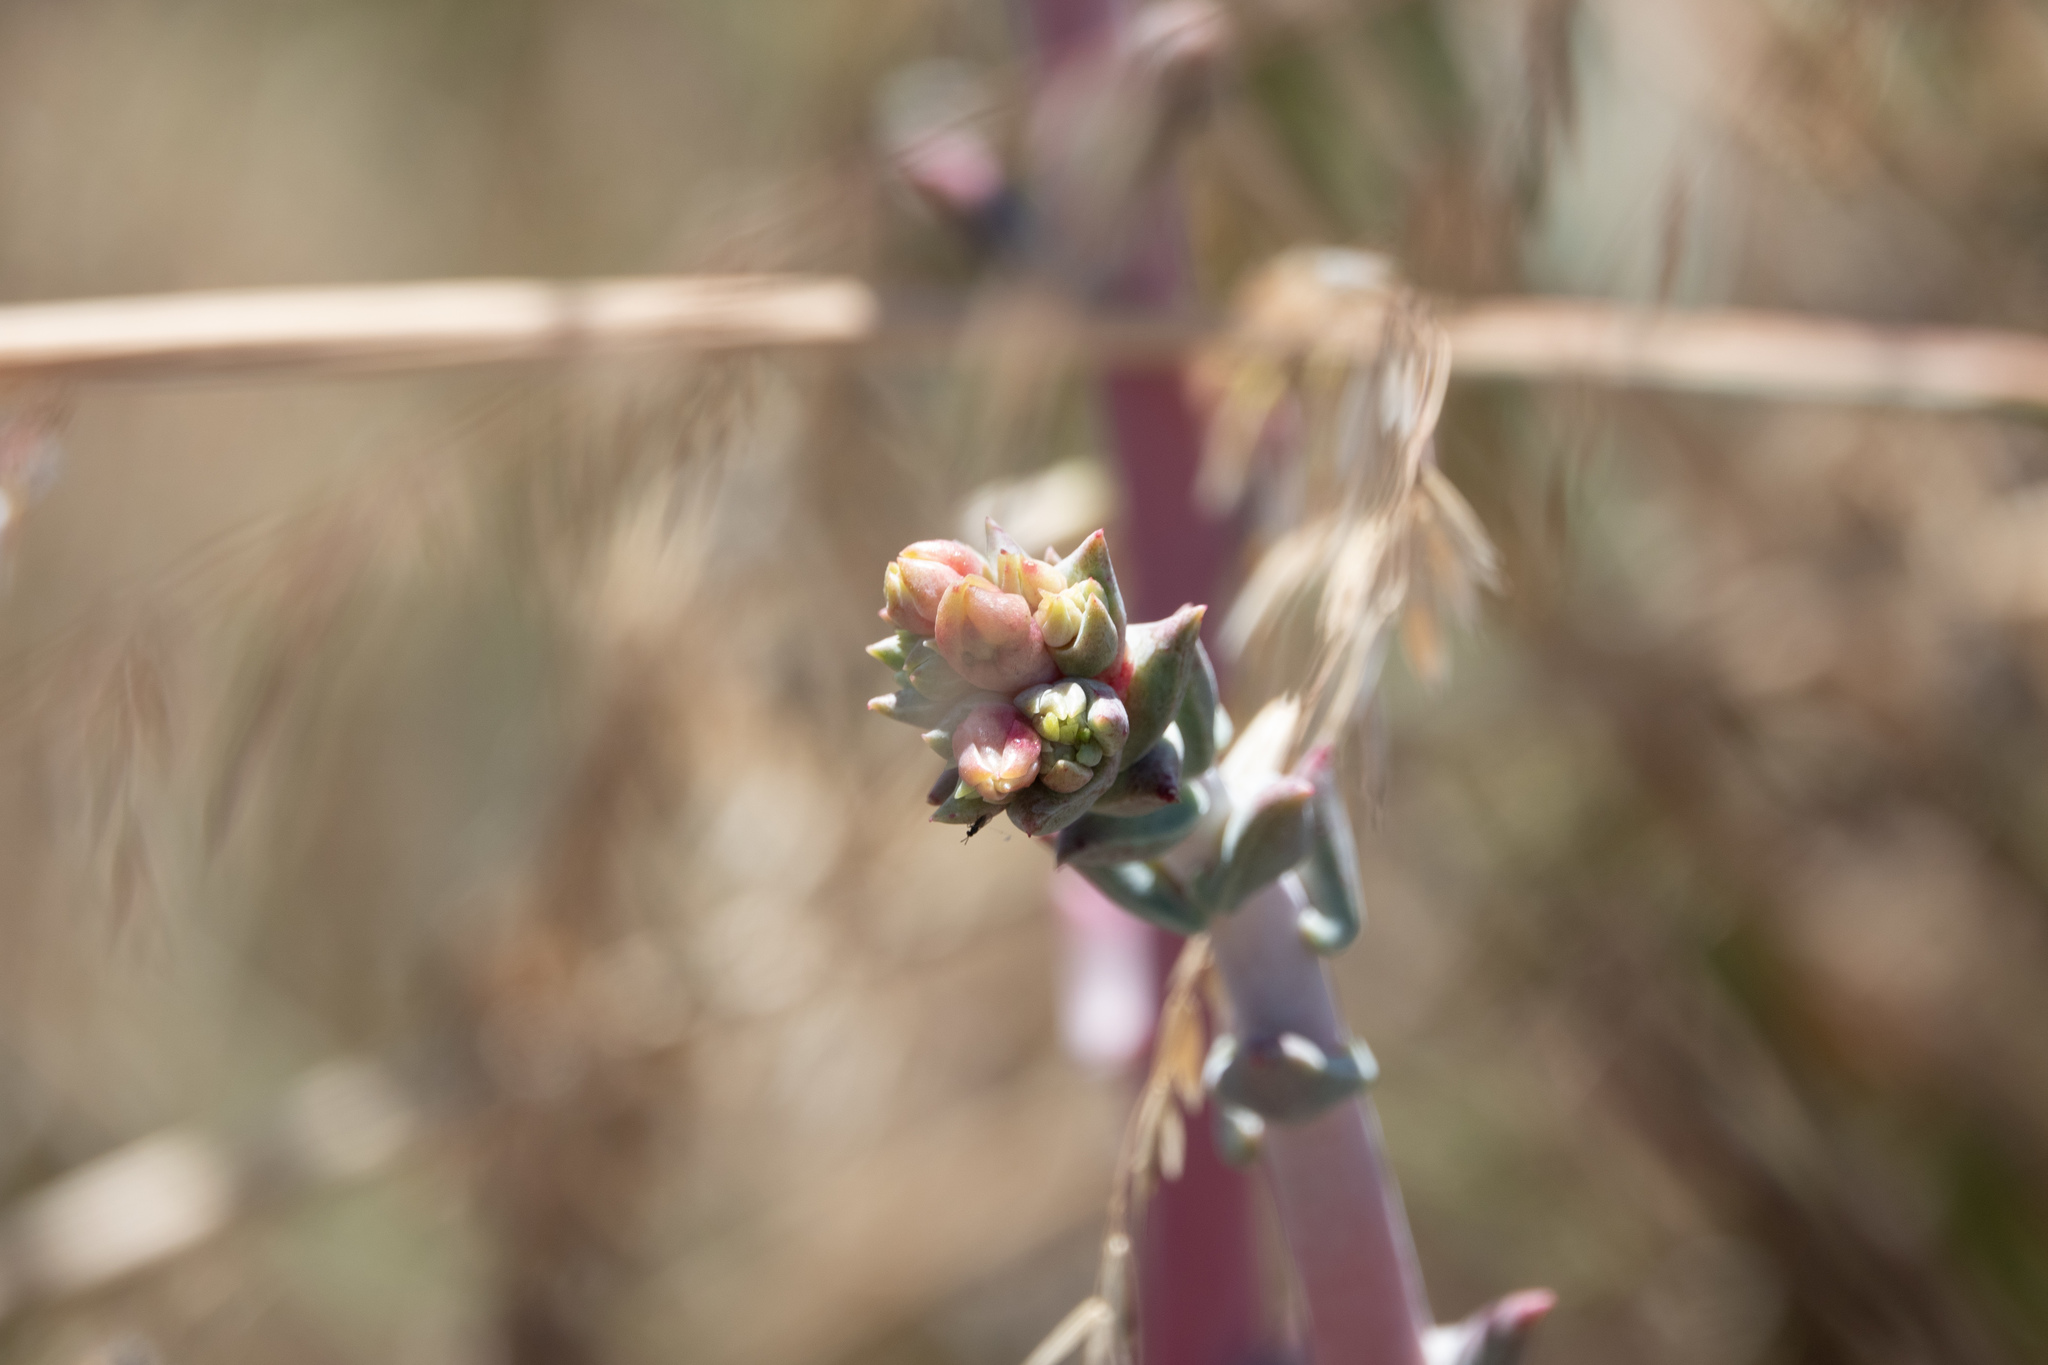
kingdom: Plantae
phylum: Tracheophyta
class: Magnoliopsida
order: Saxifragales
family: Crassulaceae
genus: Dudleya
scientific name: Dudleya caespitosa
